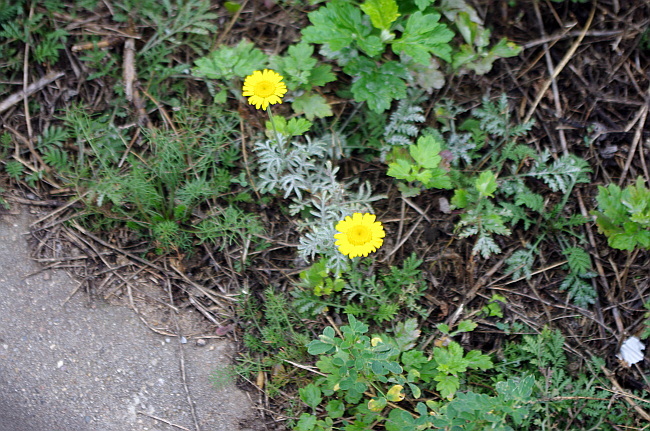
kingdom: Plantae
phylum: Tracheophyta
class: Magnoliopsida
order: Asterales
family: Asteraceae
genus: Cota
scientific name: Cota tinctoria
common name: Golden chamomile
